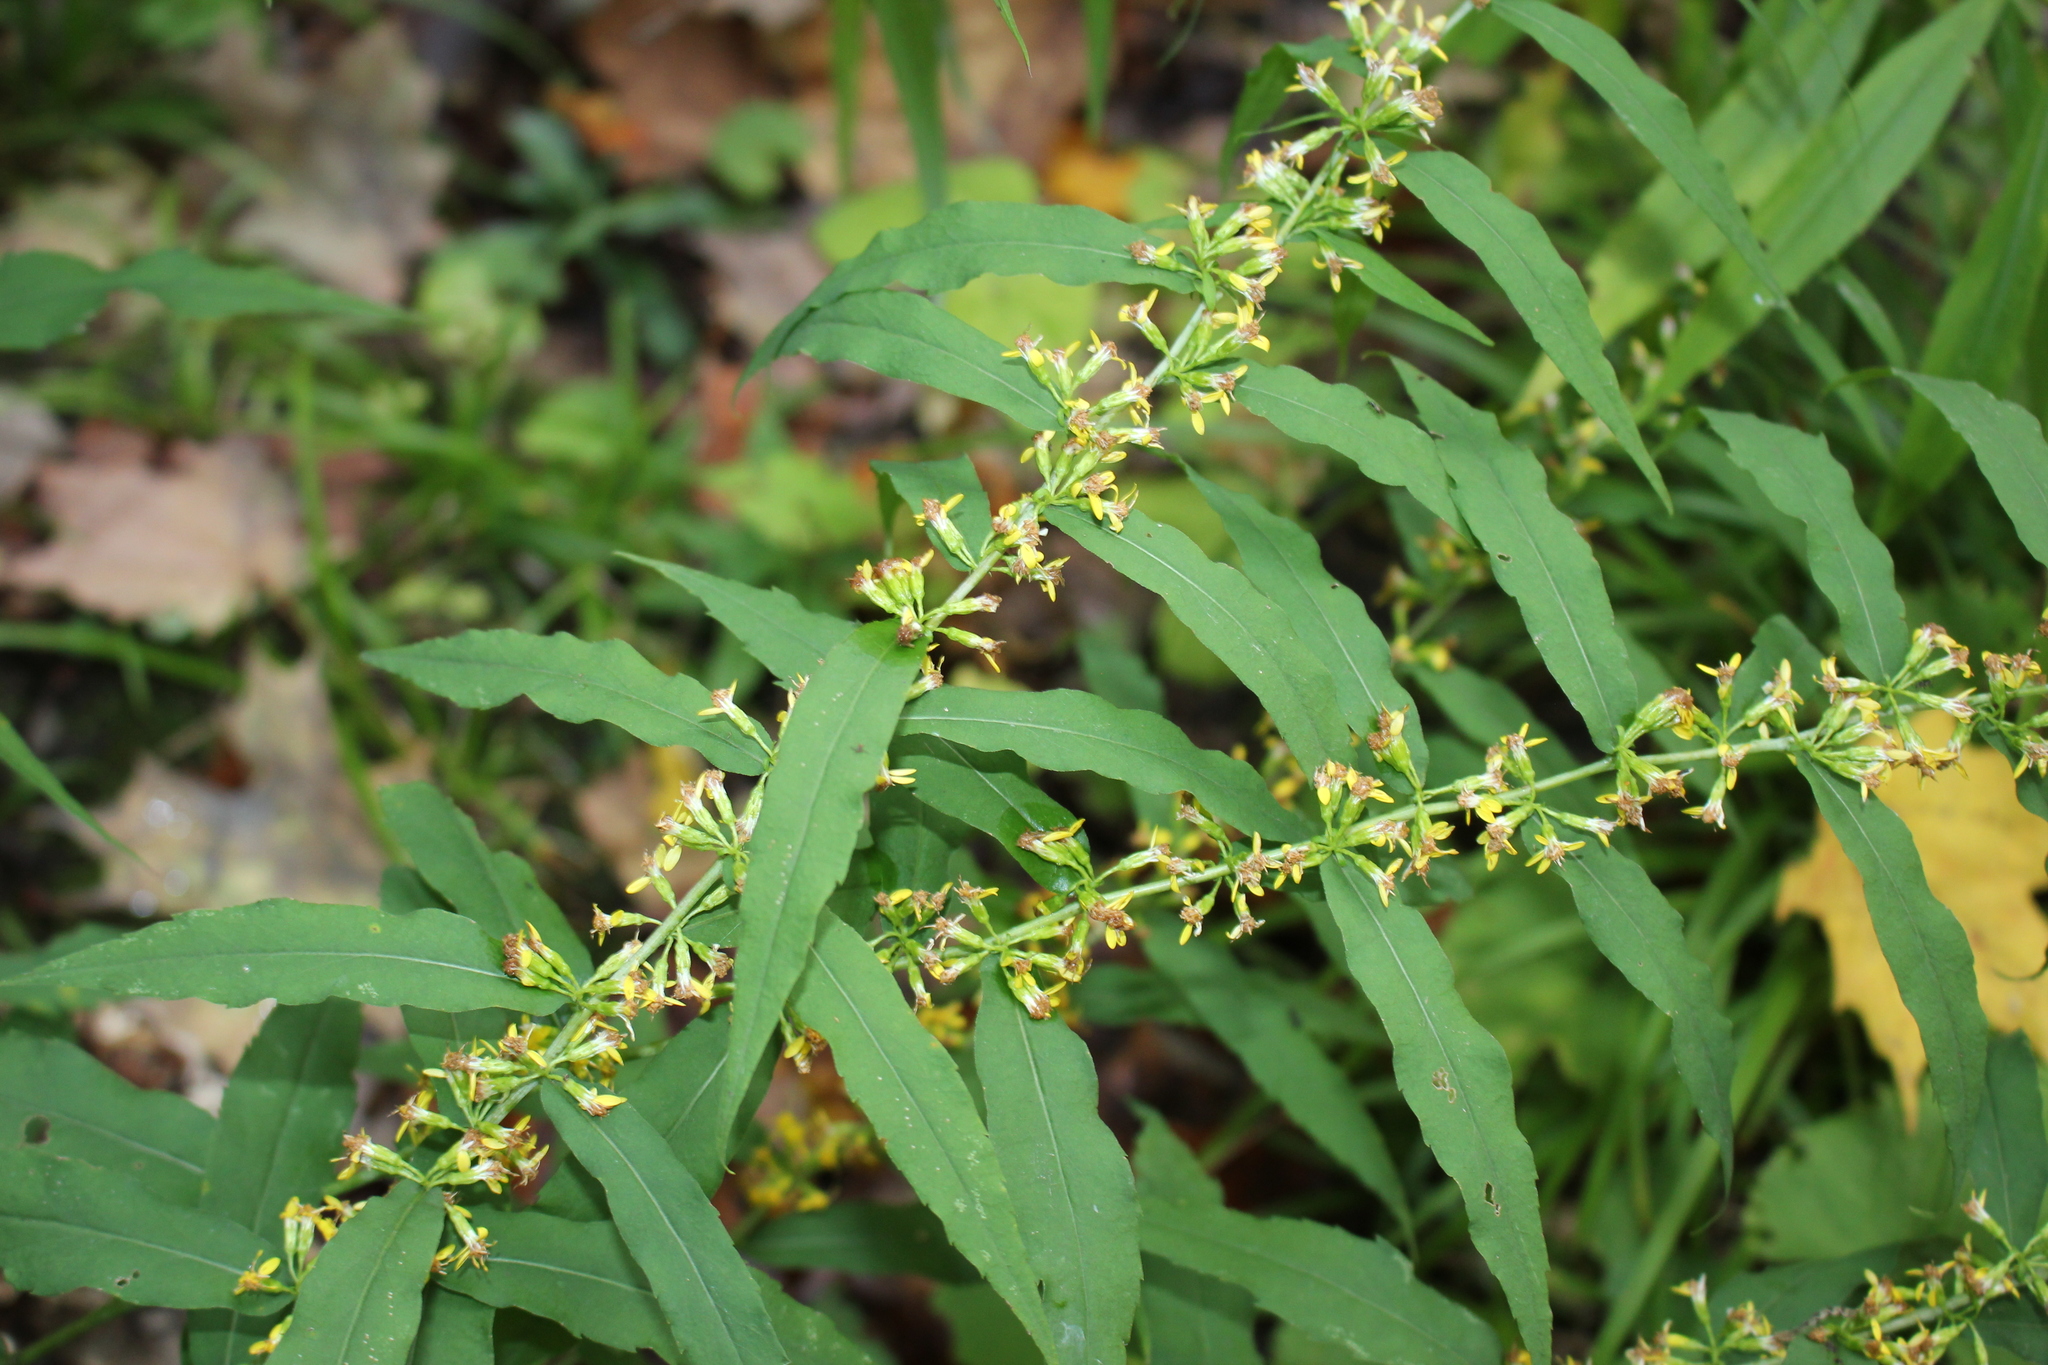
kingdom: Plantae
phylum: Tracheophyta
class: Magnoliopsida
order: Asterales
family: Asteraceae
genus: Solidago
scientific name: Solidago caesia
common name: Woodland goldenrod
